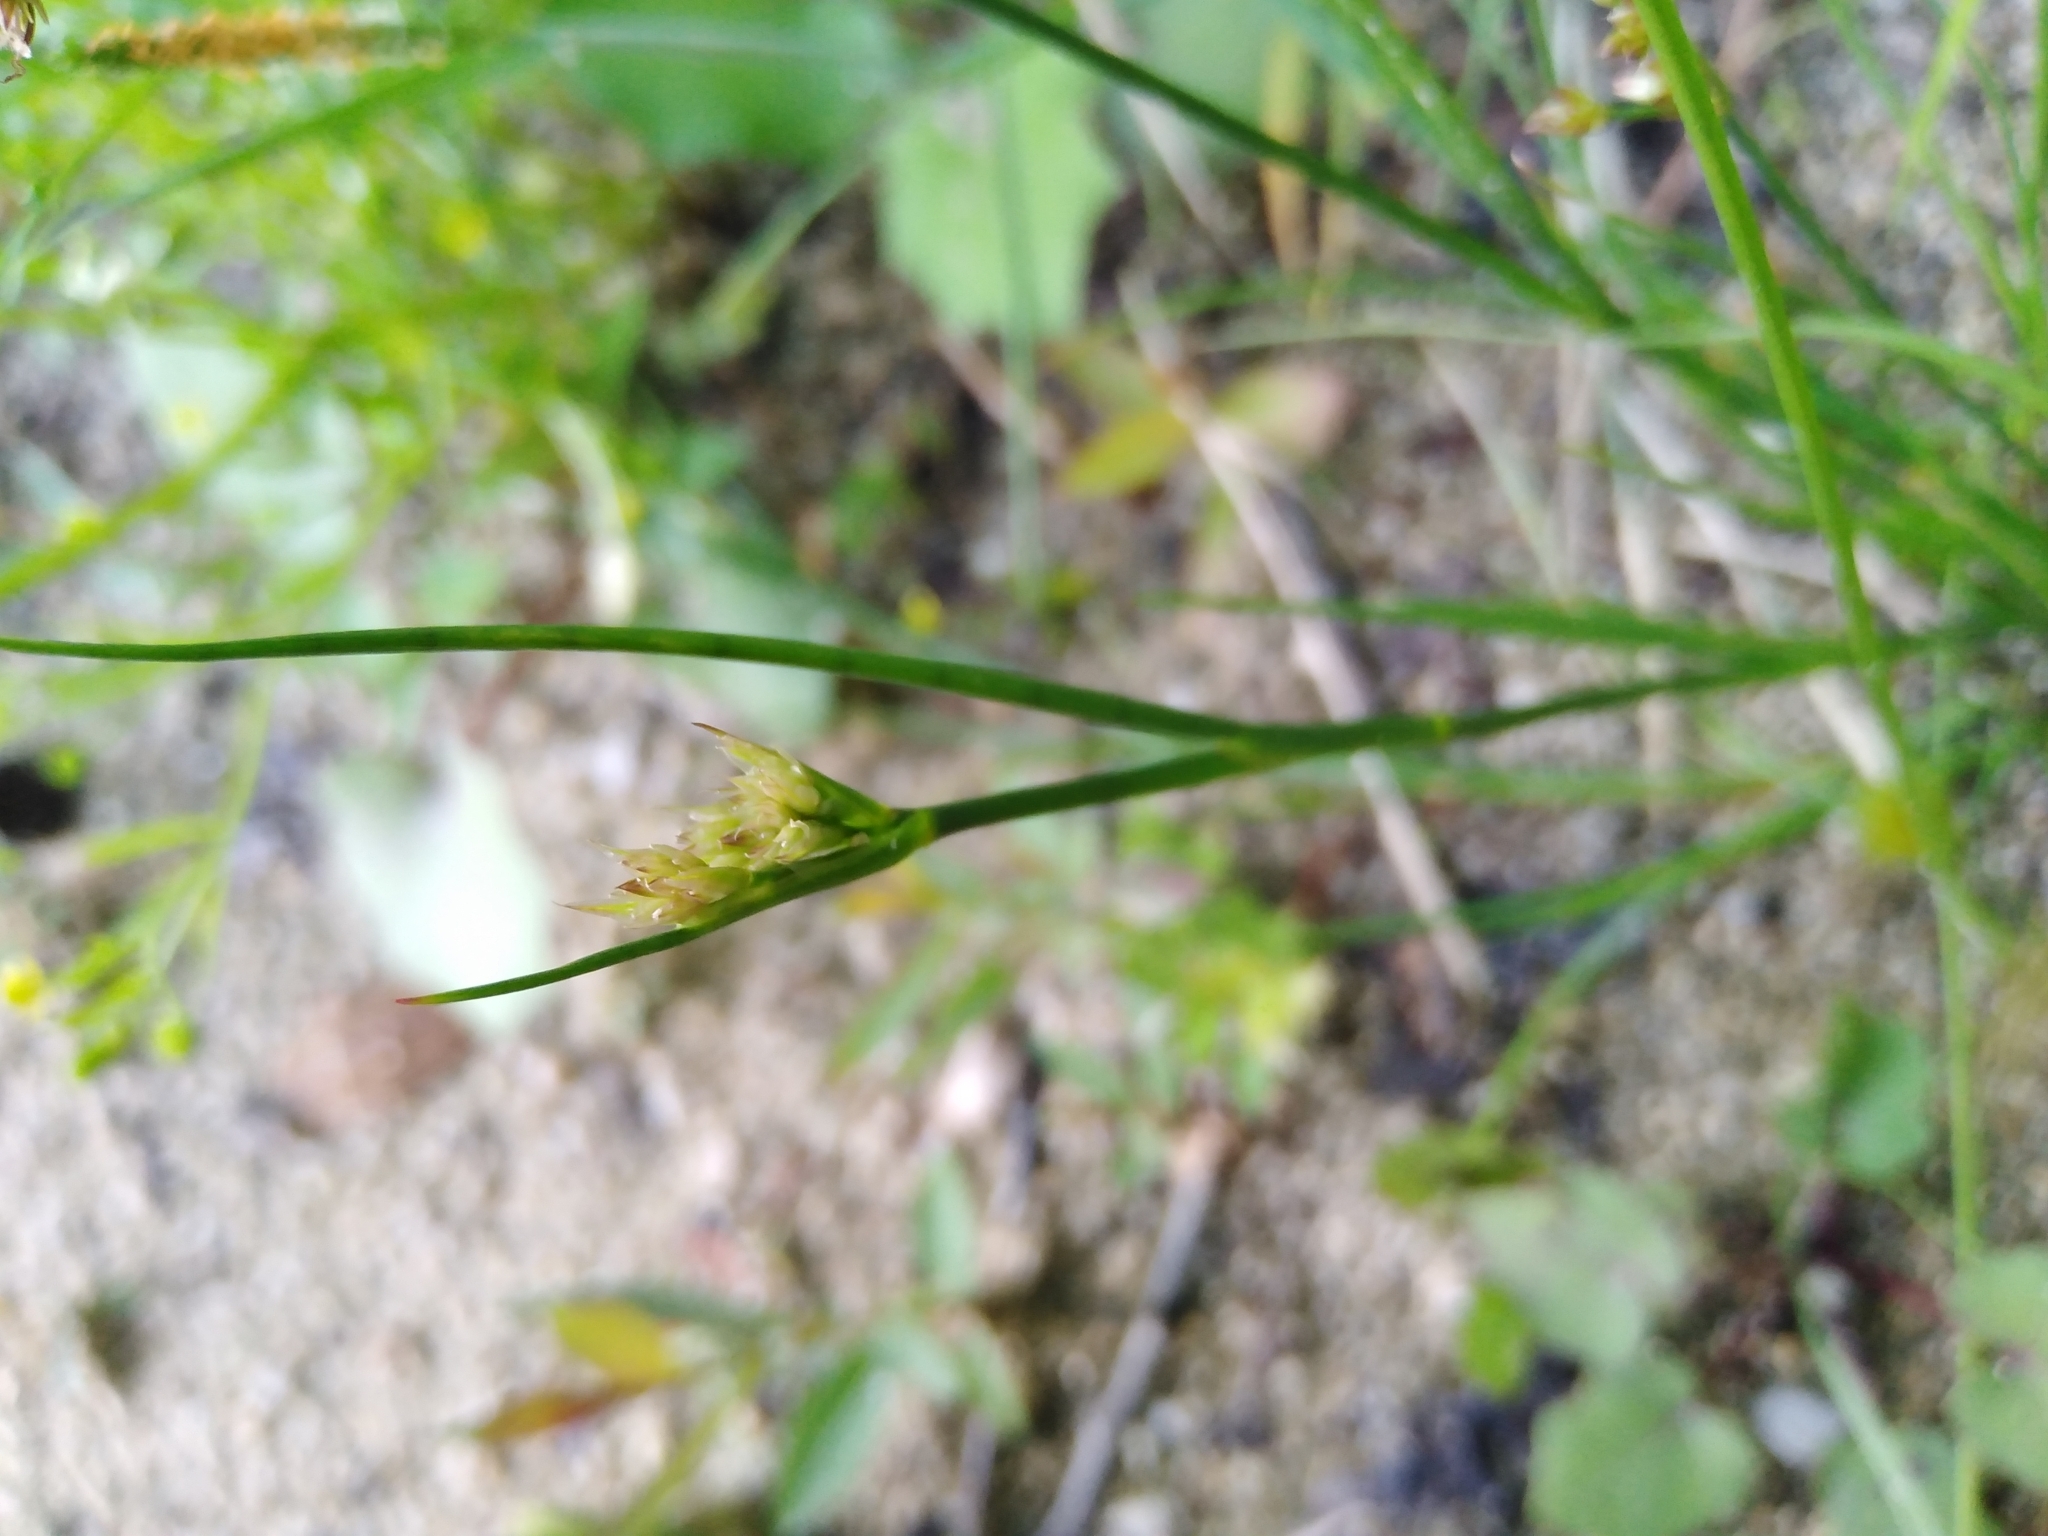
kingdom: Plantae
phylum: Tracheophyta
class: Liliopsida
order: Poales
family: Juncaceae
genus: Juncus
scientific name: Juncus articulatus
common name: Jointed rush
